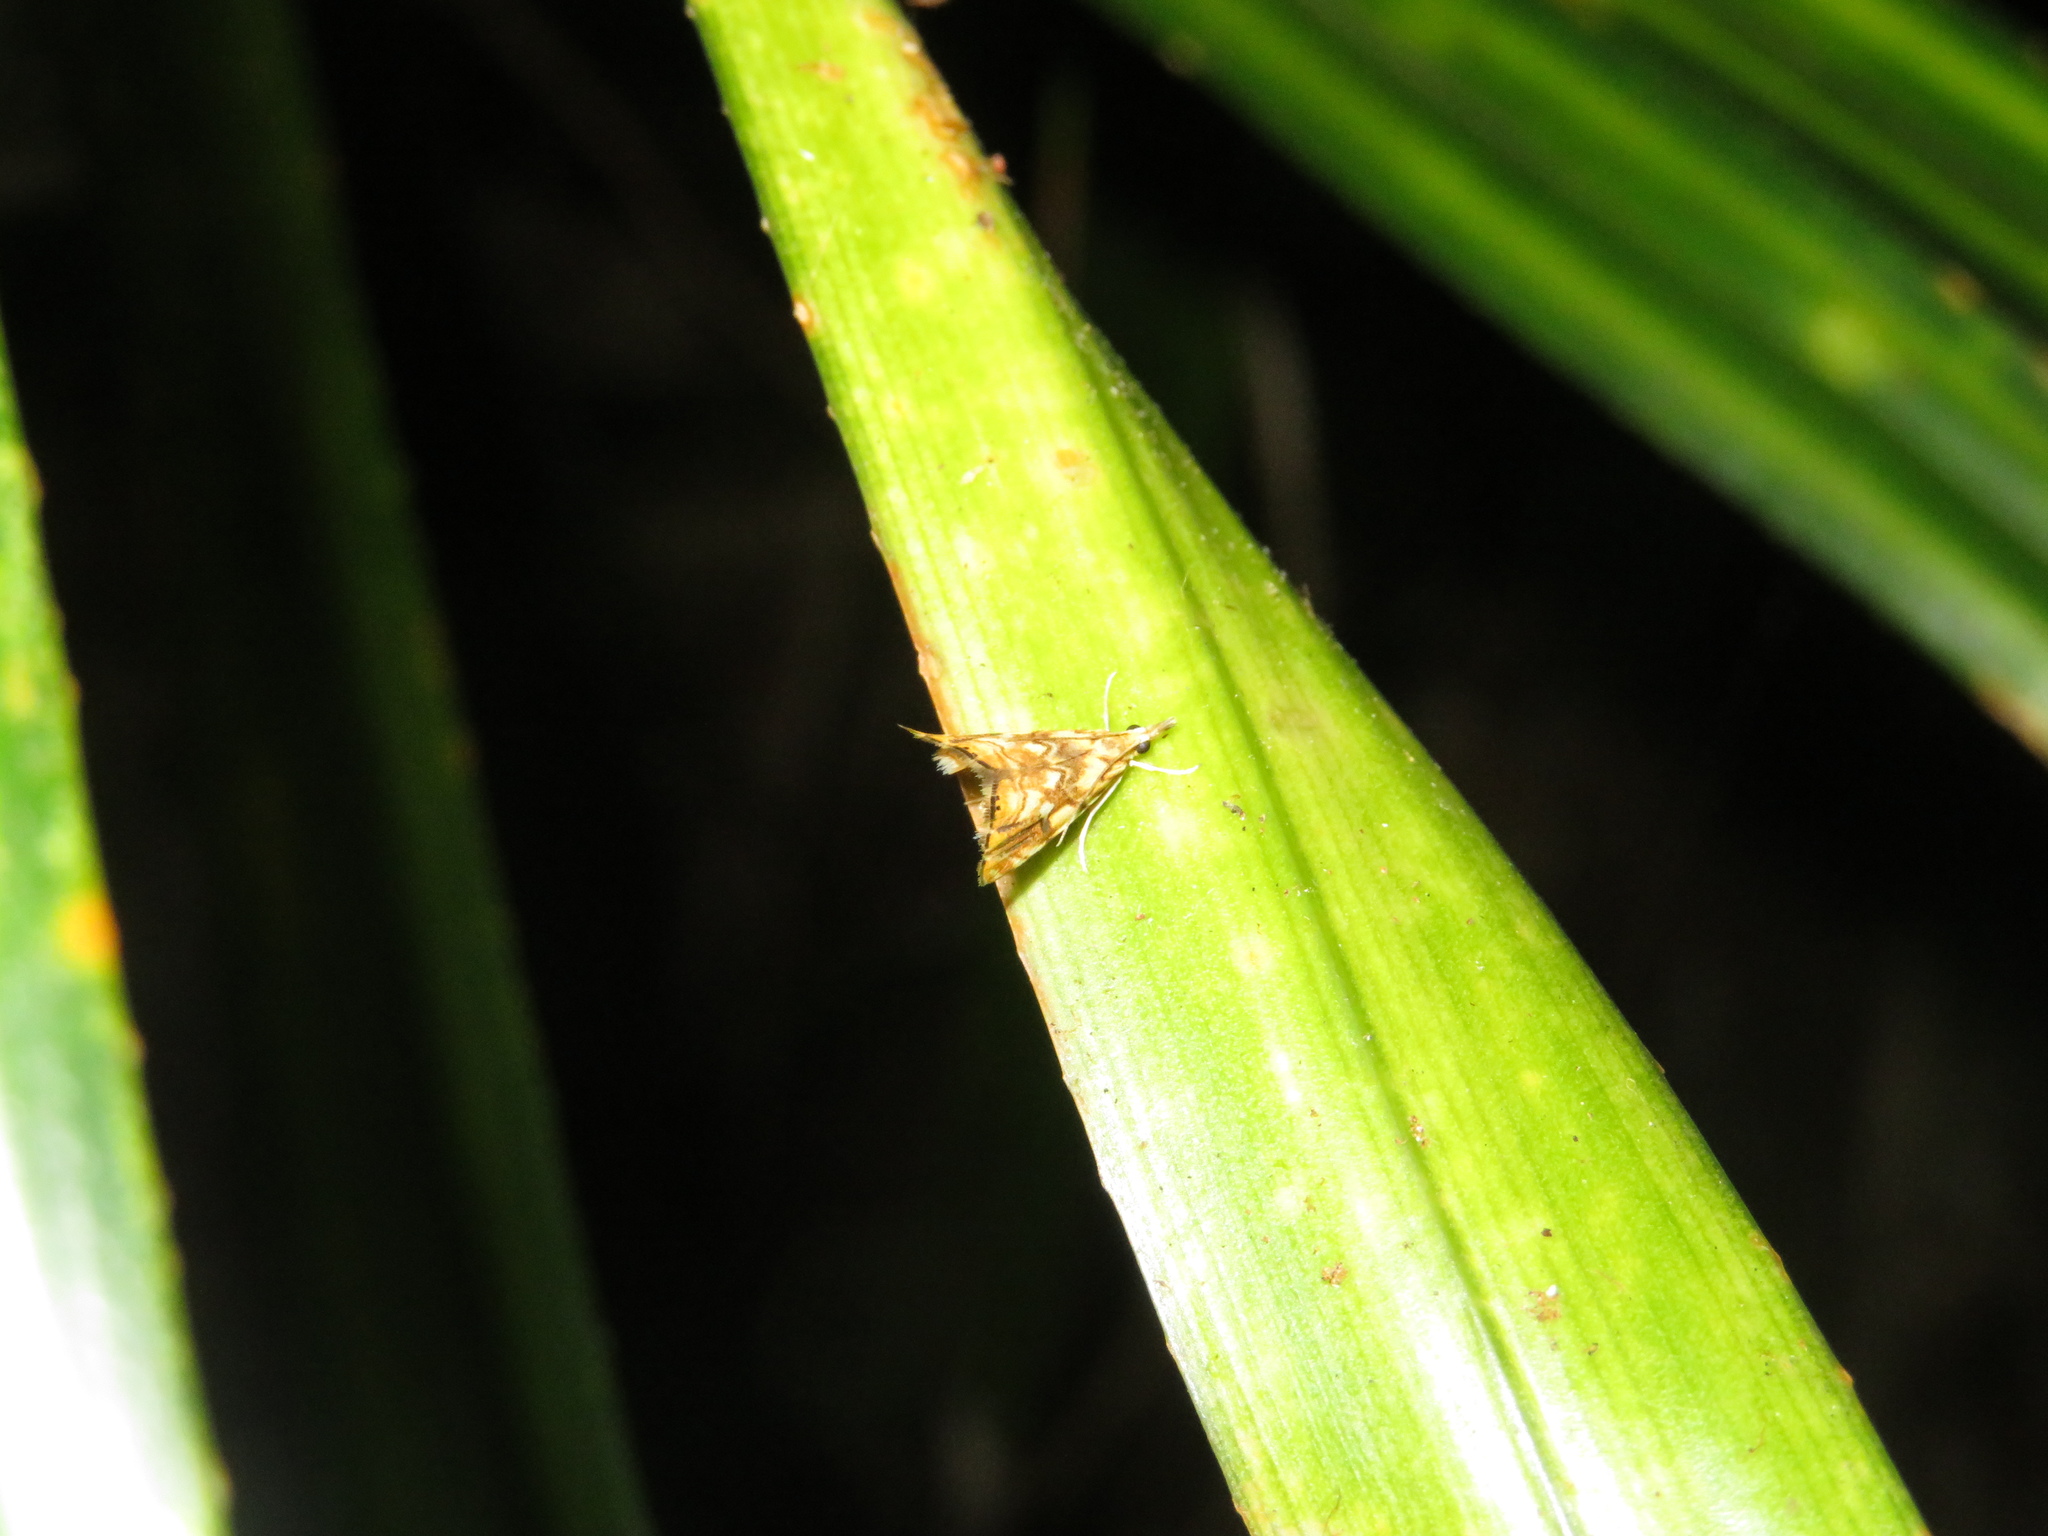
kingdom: Animalia
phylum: Arthropoda
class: Insecta
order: Lepidoptera
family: Crambidae
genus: Glaucocharis
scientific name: Glaucocharis selenaea
